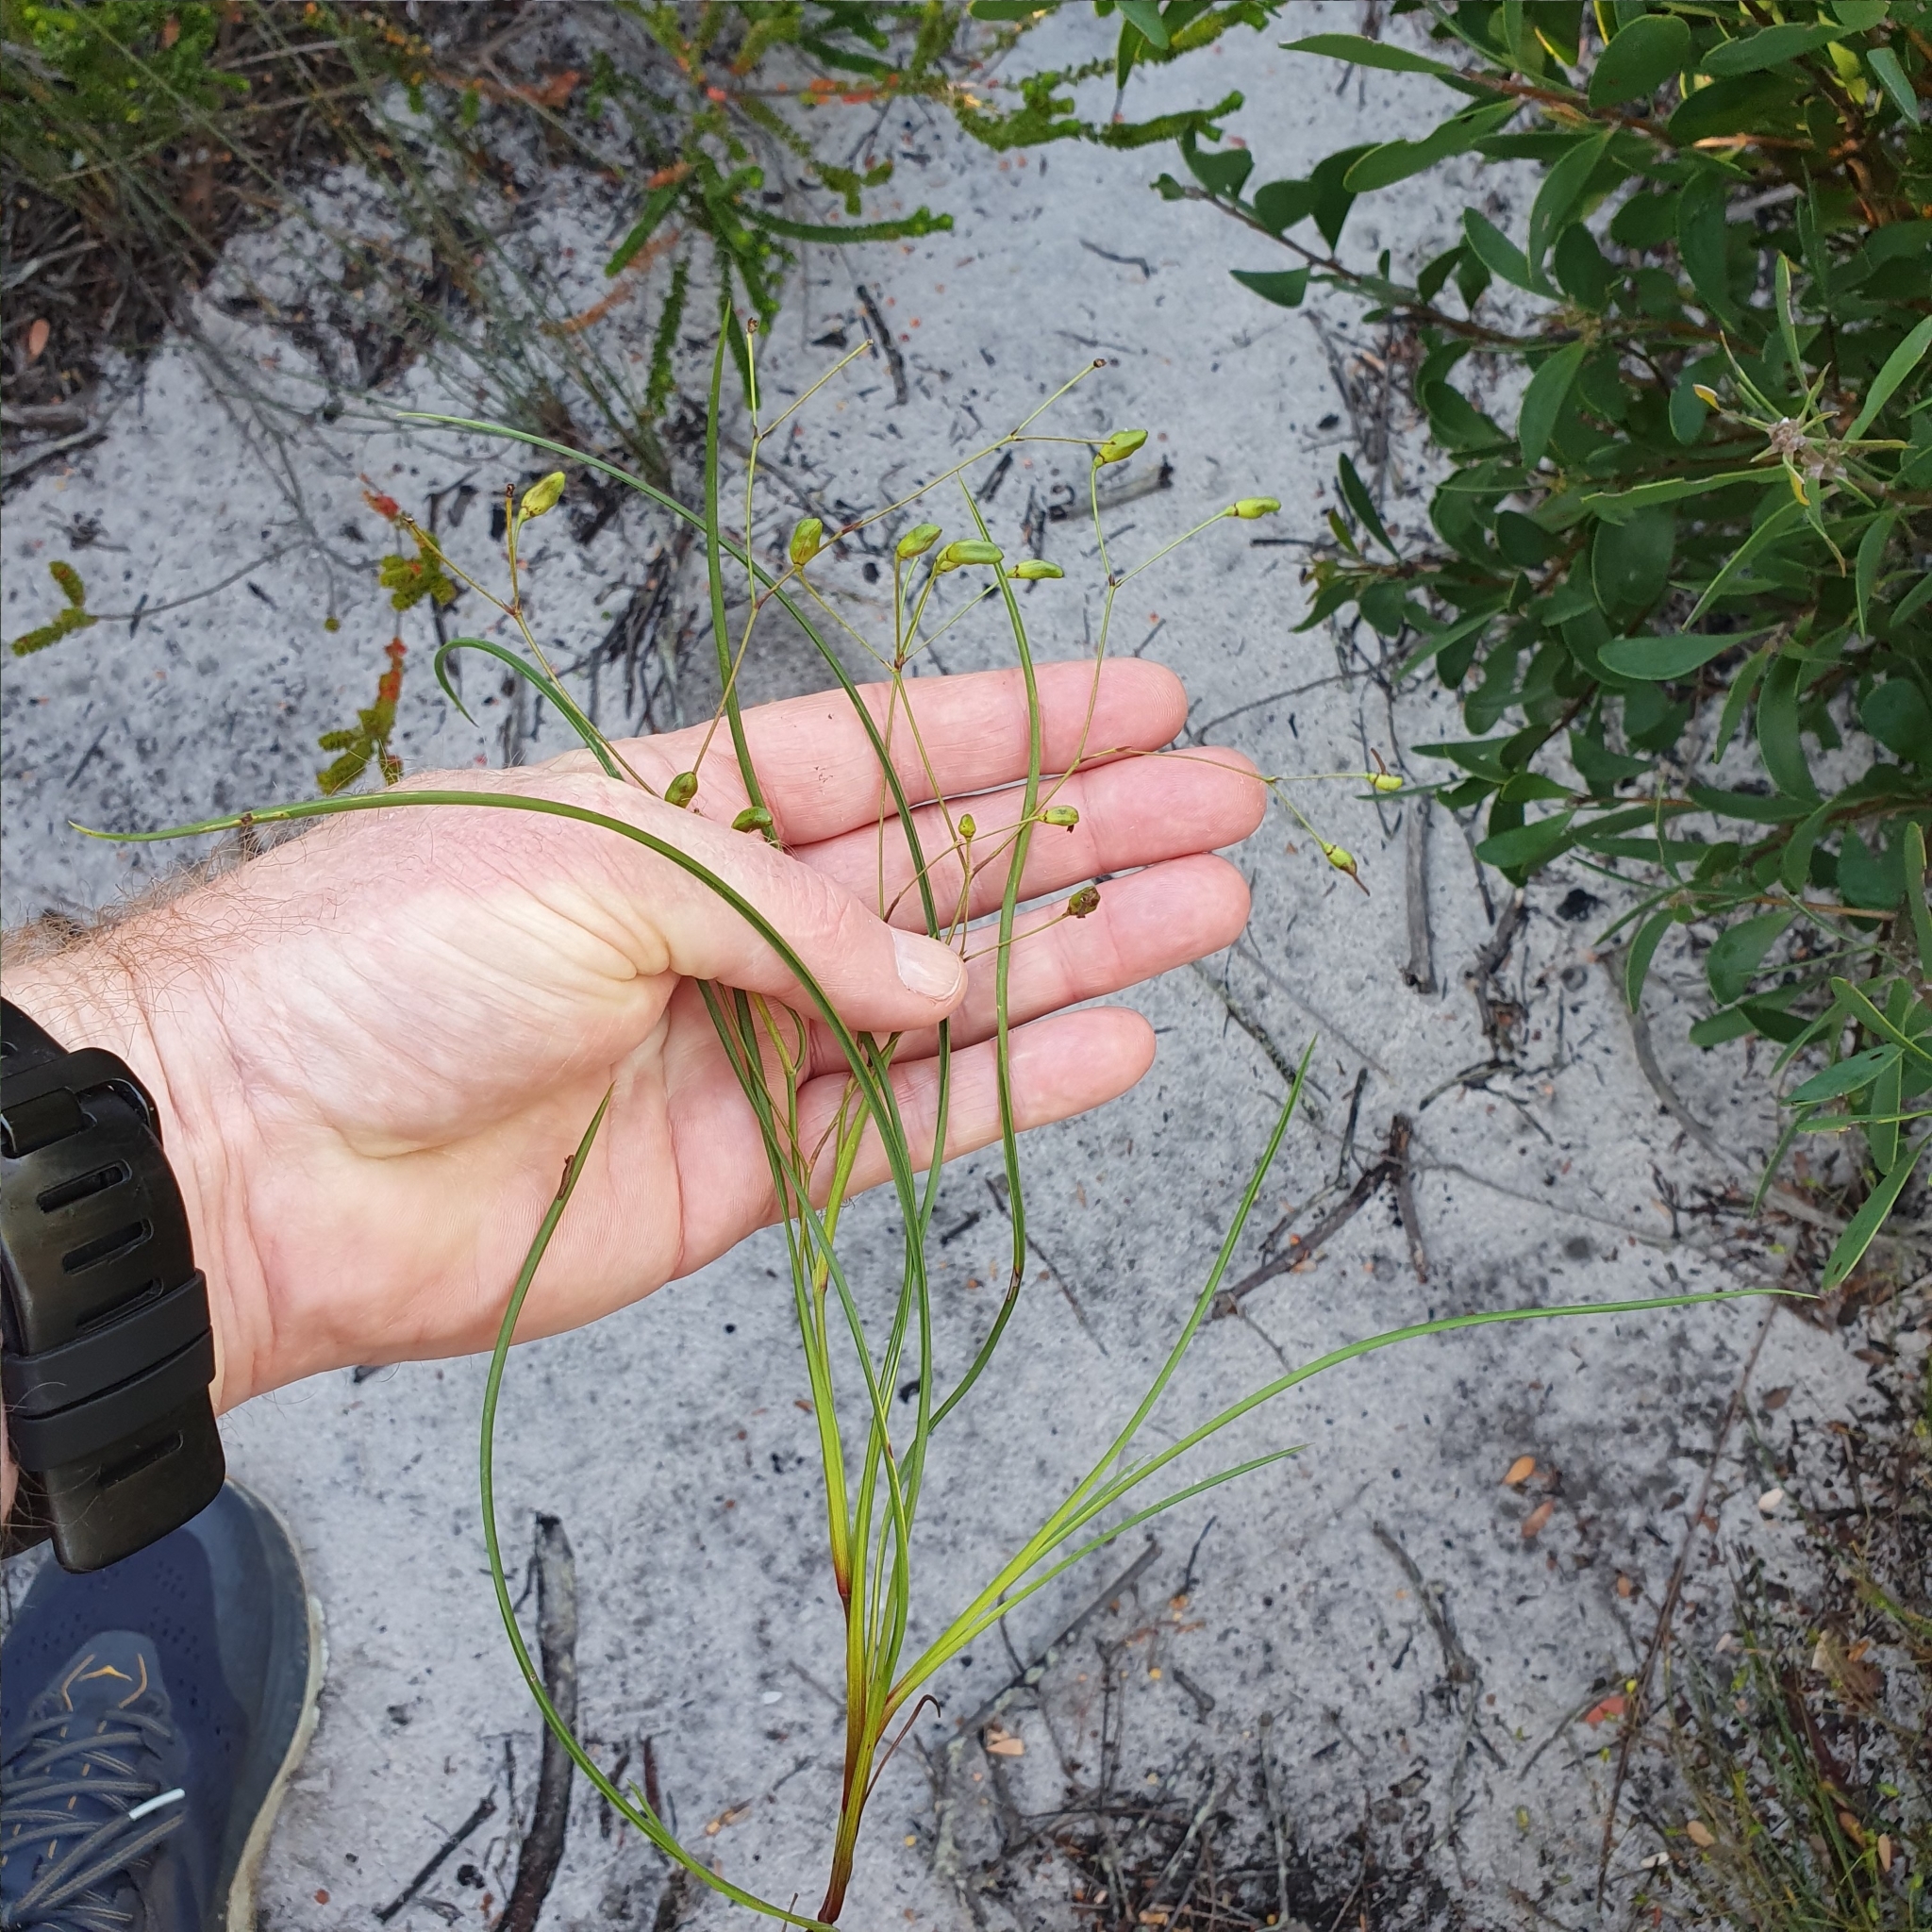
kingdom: Plantae
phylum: Tracheophyta
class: Liliopsida
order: Asparagales
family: Asphodelaceae
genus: Thelionema
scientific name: Thelionema umbellatum
